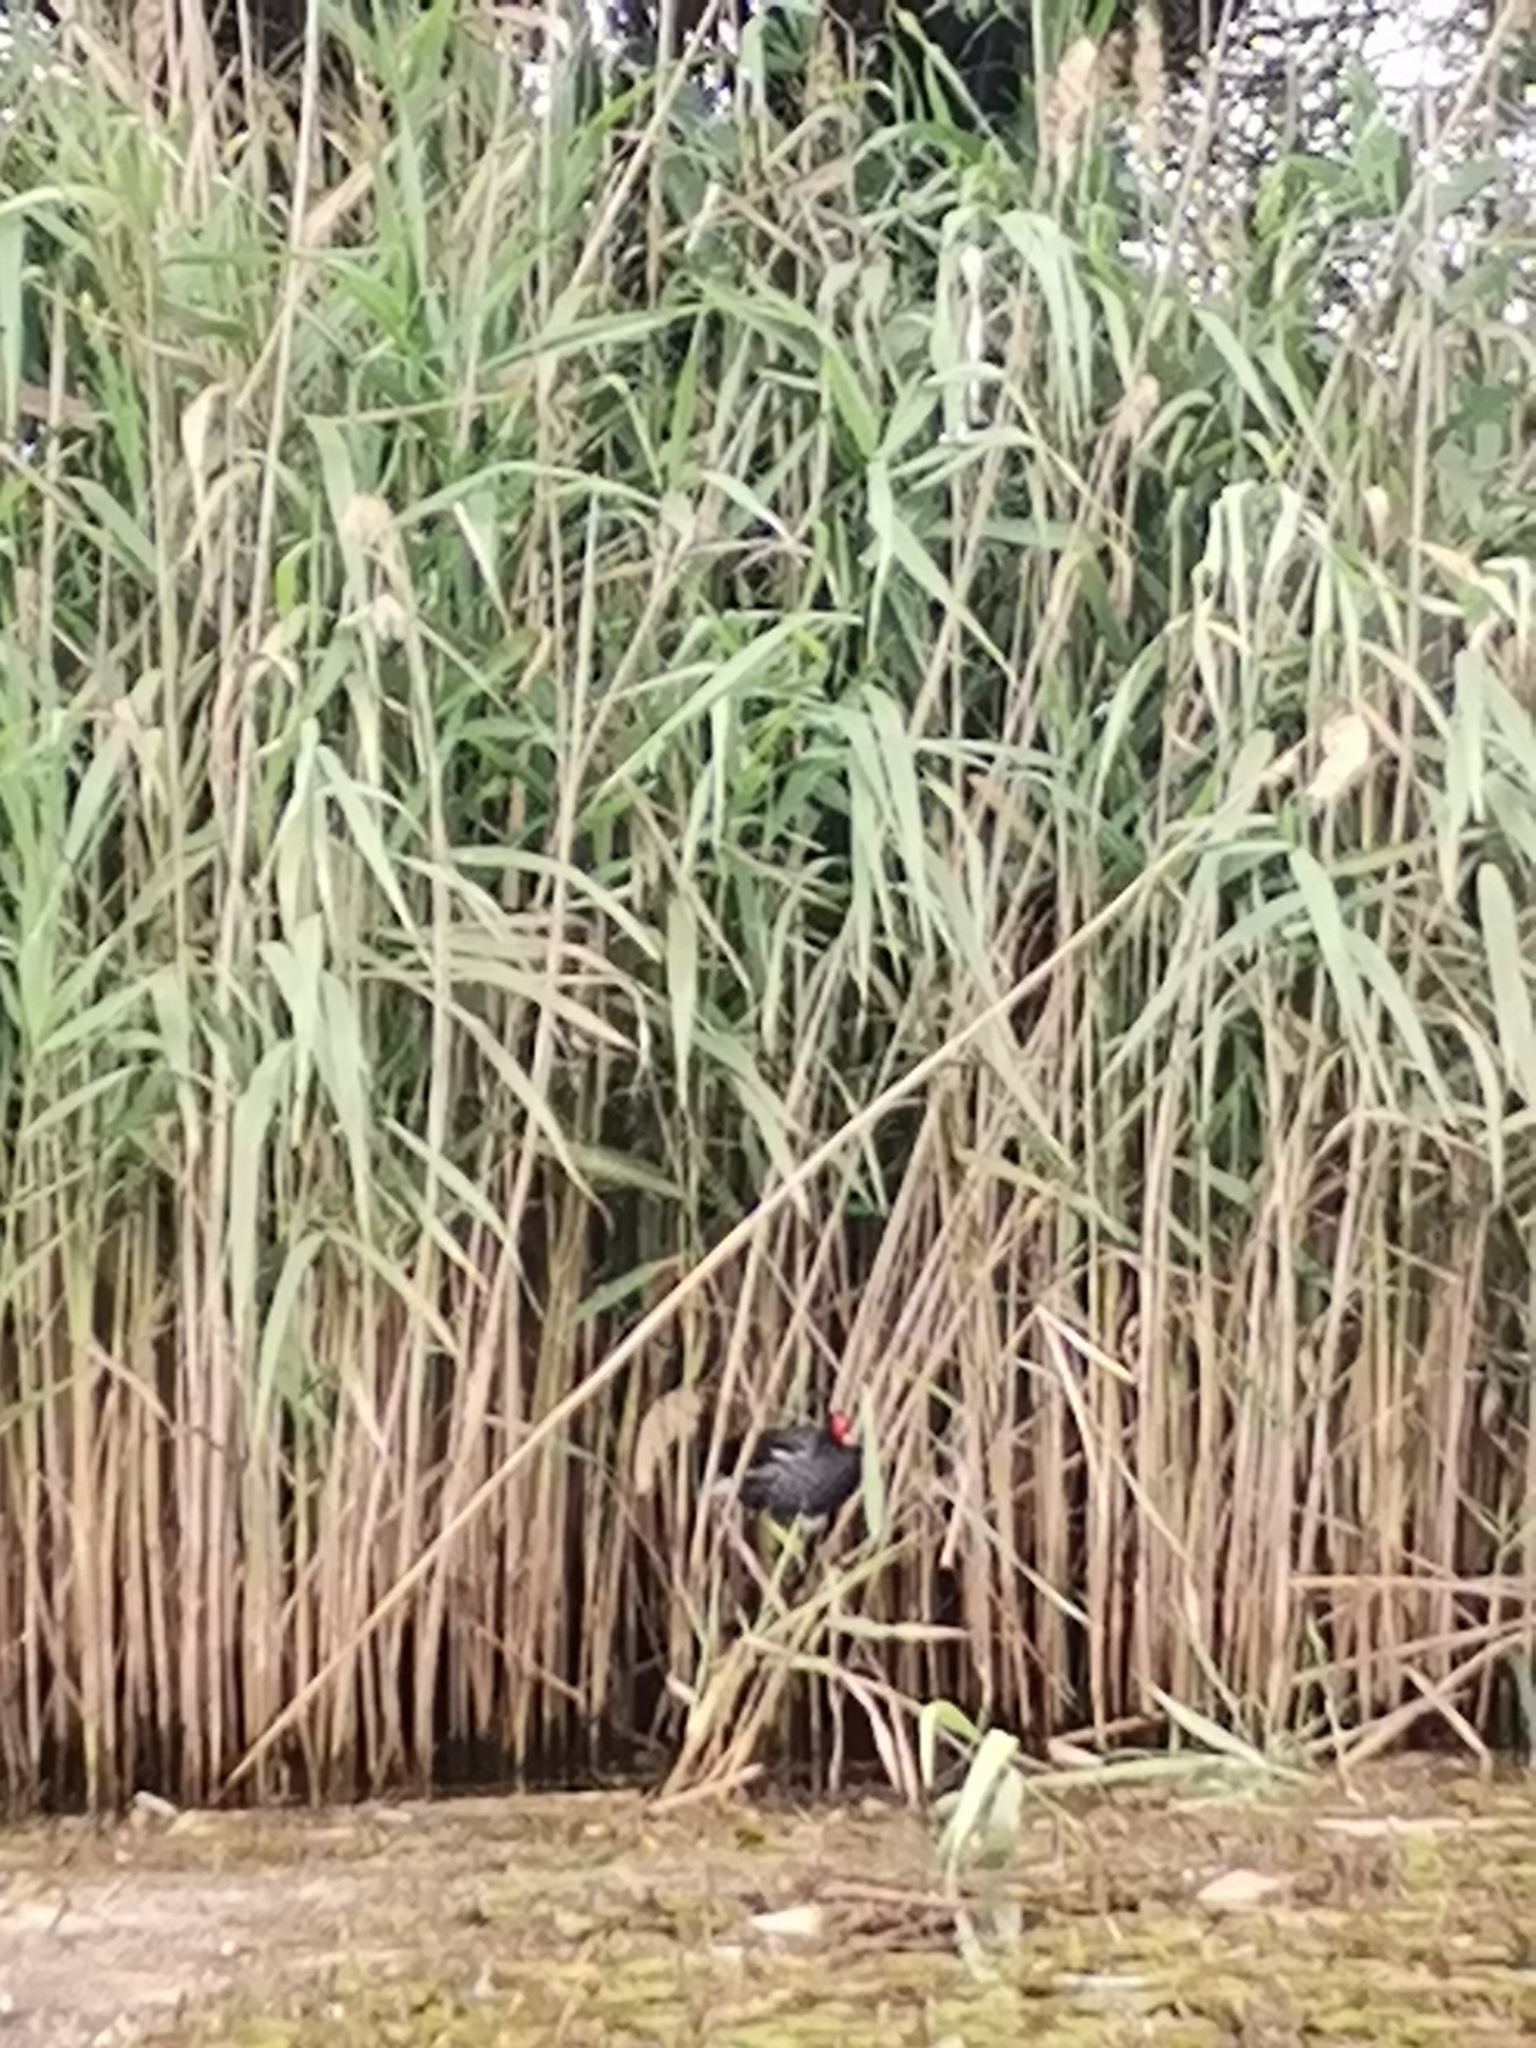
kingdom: Animalia
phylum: Chordata
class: Aves
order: Gruiformes
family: Rallidae
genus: Gallinula
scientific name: Gallinula chloropus
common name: Common moorhen
